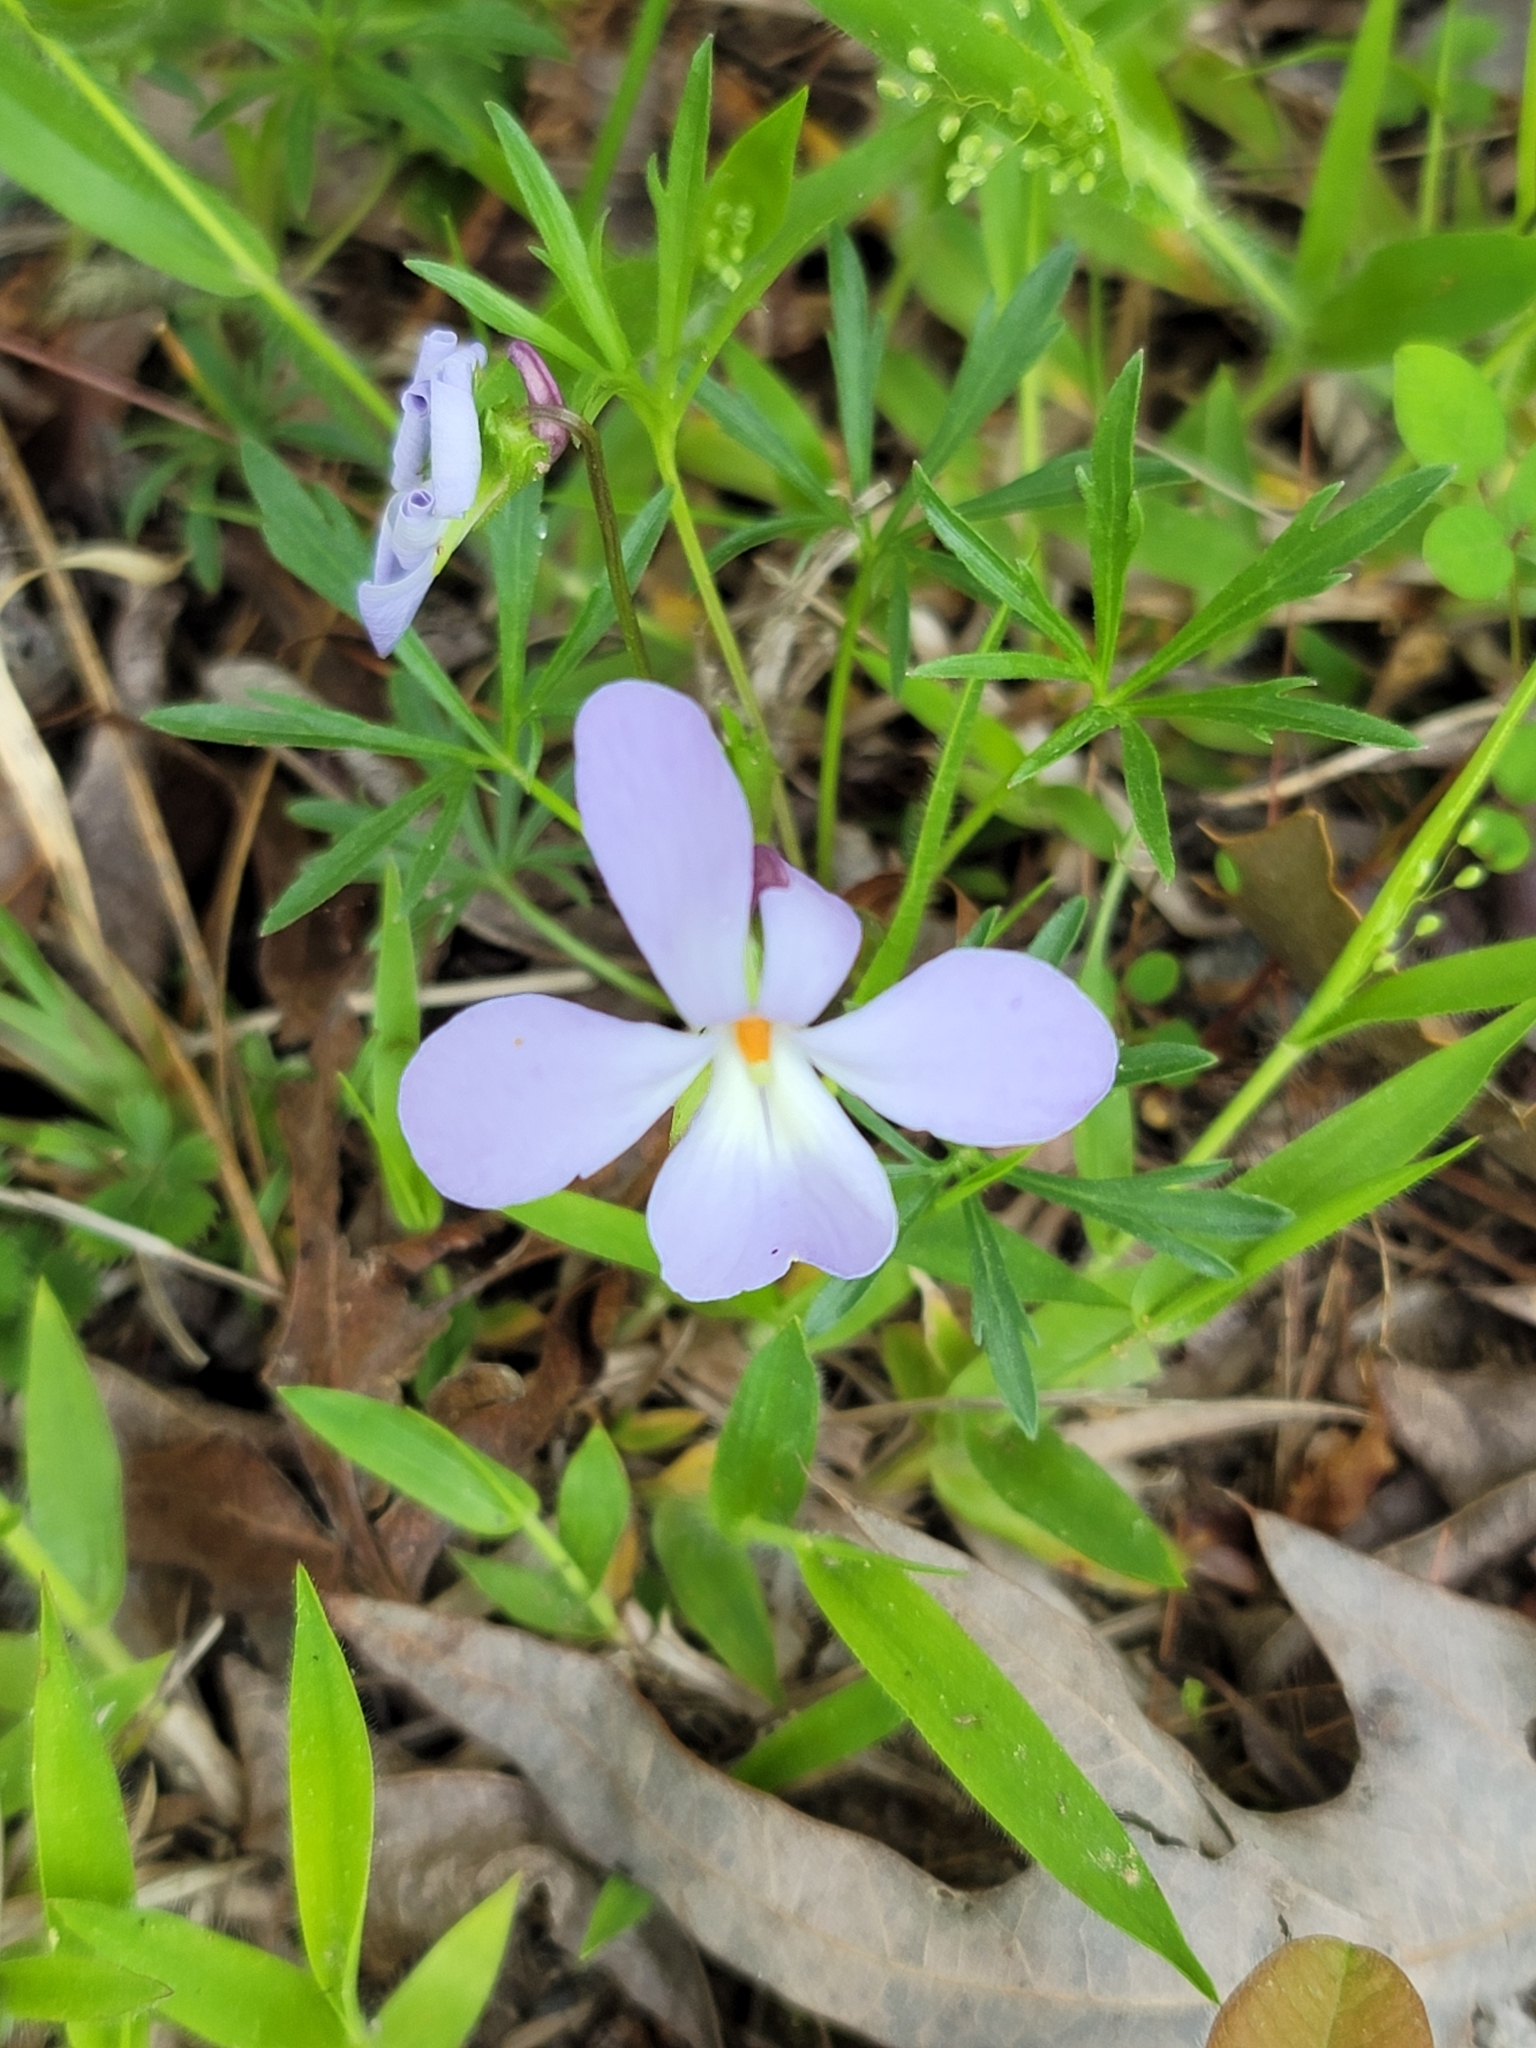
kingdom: Plantae
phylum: Tracheophyta
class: Magnoliopsida
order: Malpighiales
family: Violaceae
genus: Viola
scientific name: Viola pedata
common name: Pansy violet
